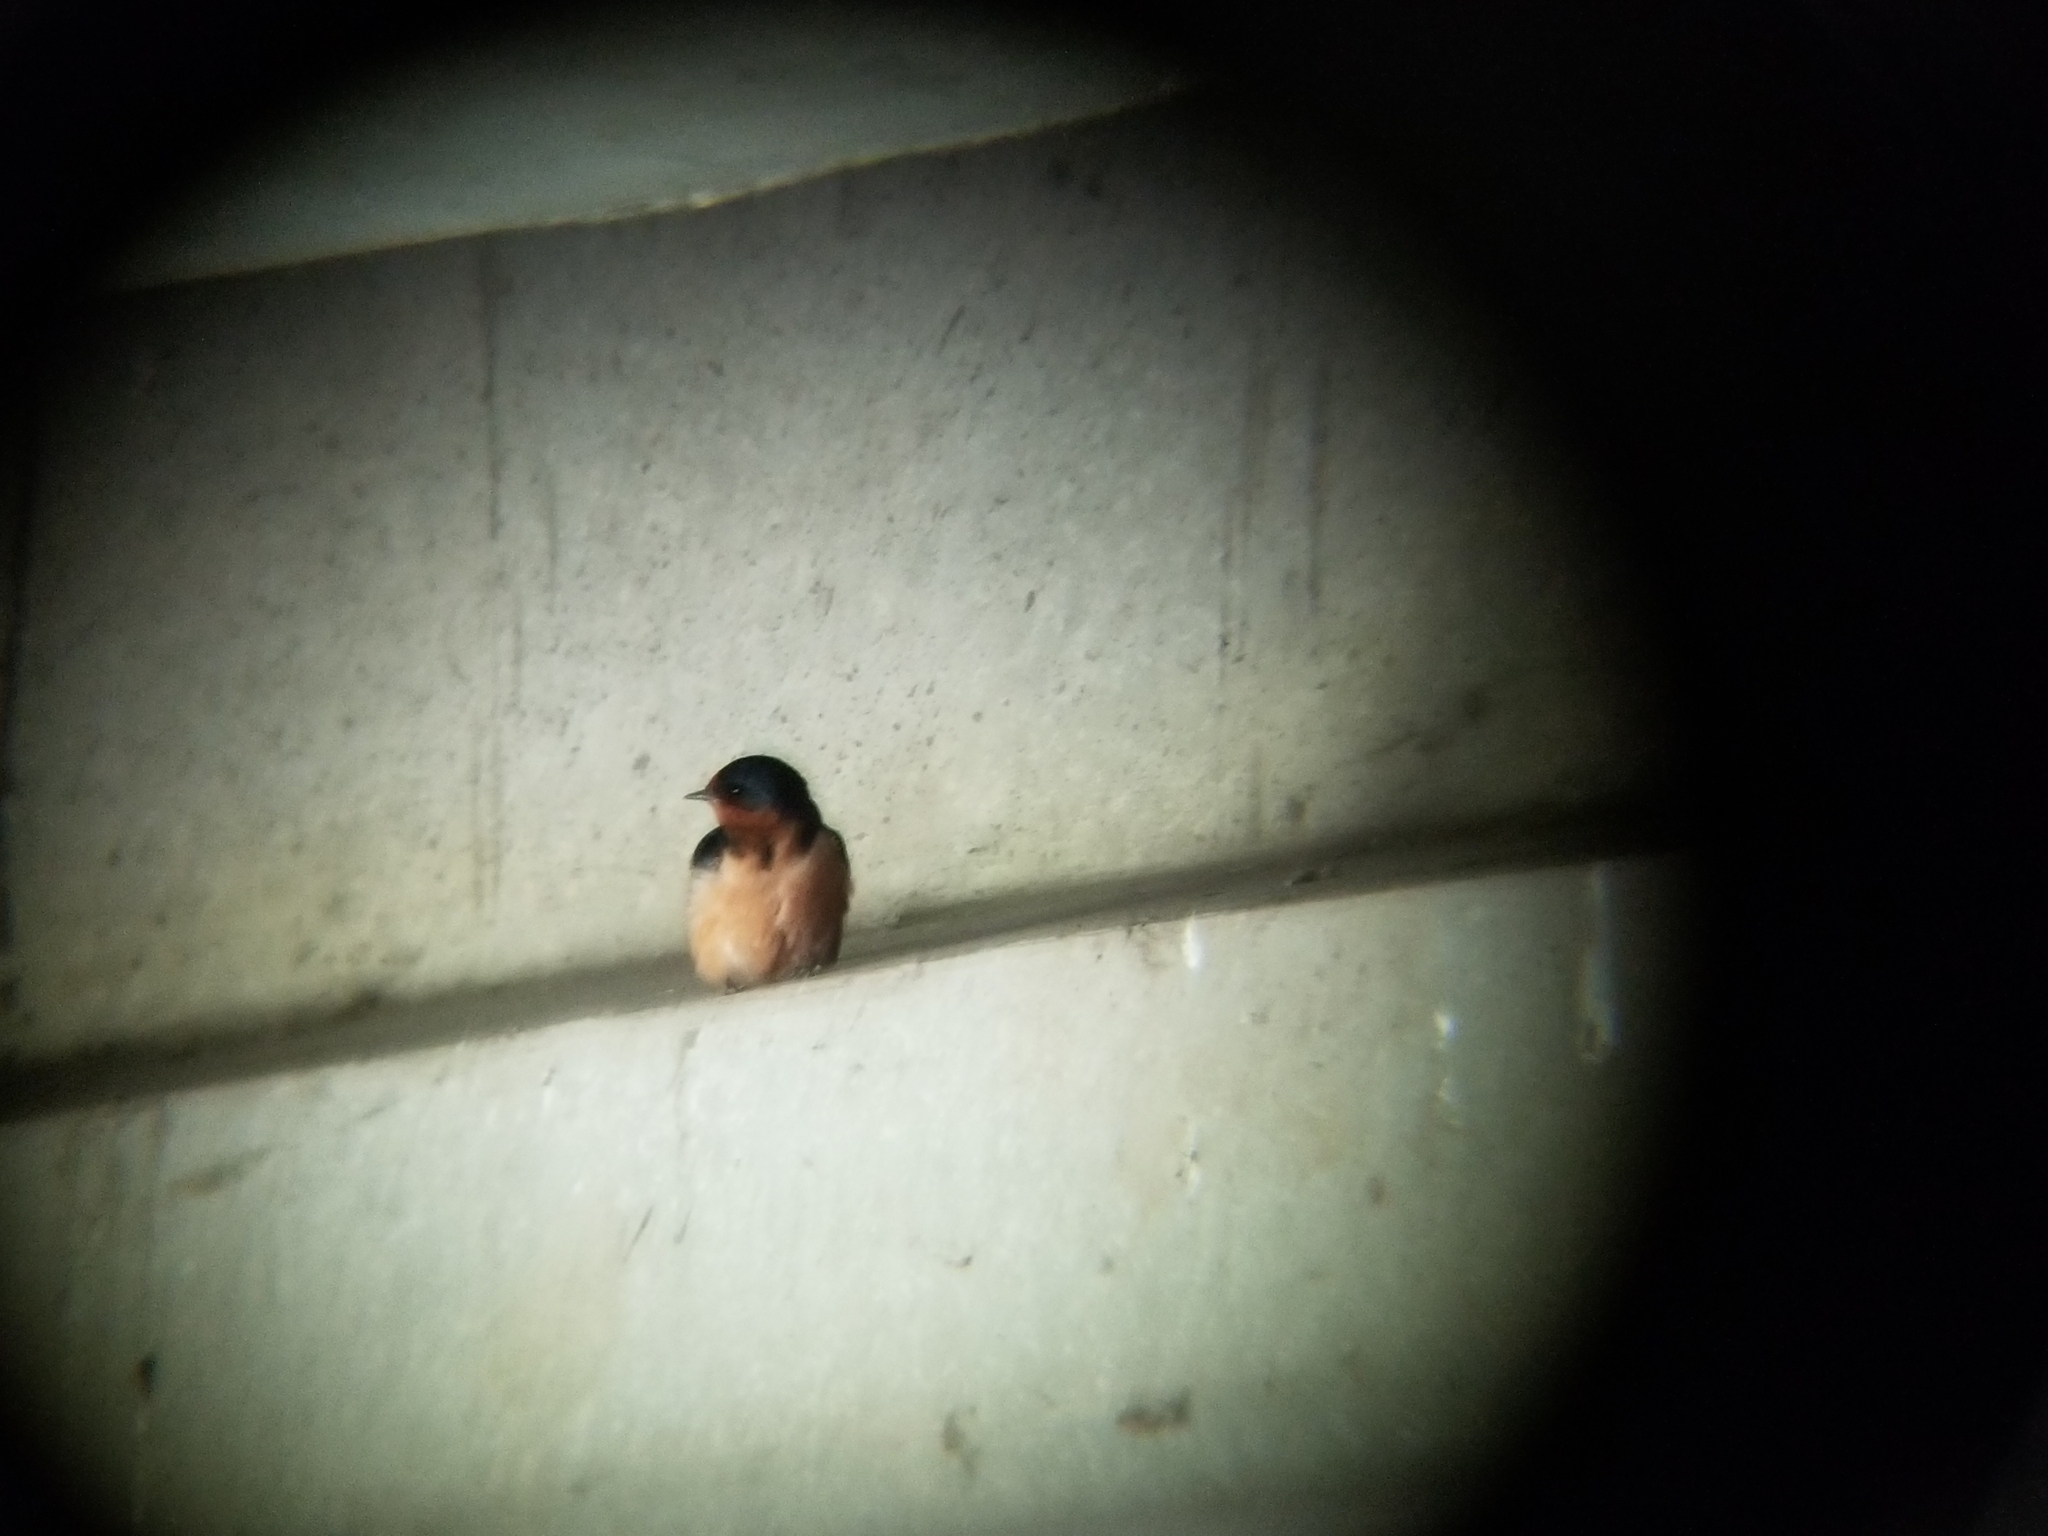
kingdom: Animalia
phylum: Chordata
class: Aves
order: Passeriformes
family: Hirundinidae
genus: Hirundo
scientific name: Hirundo rustica
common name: Barn swallow
